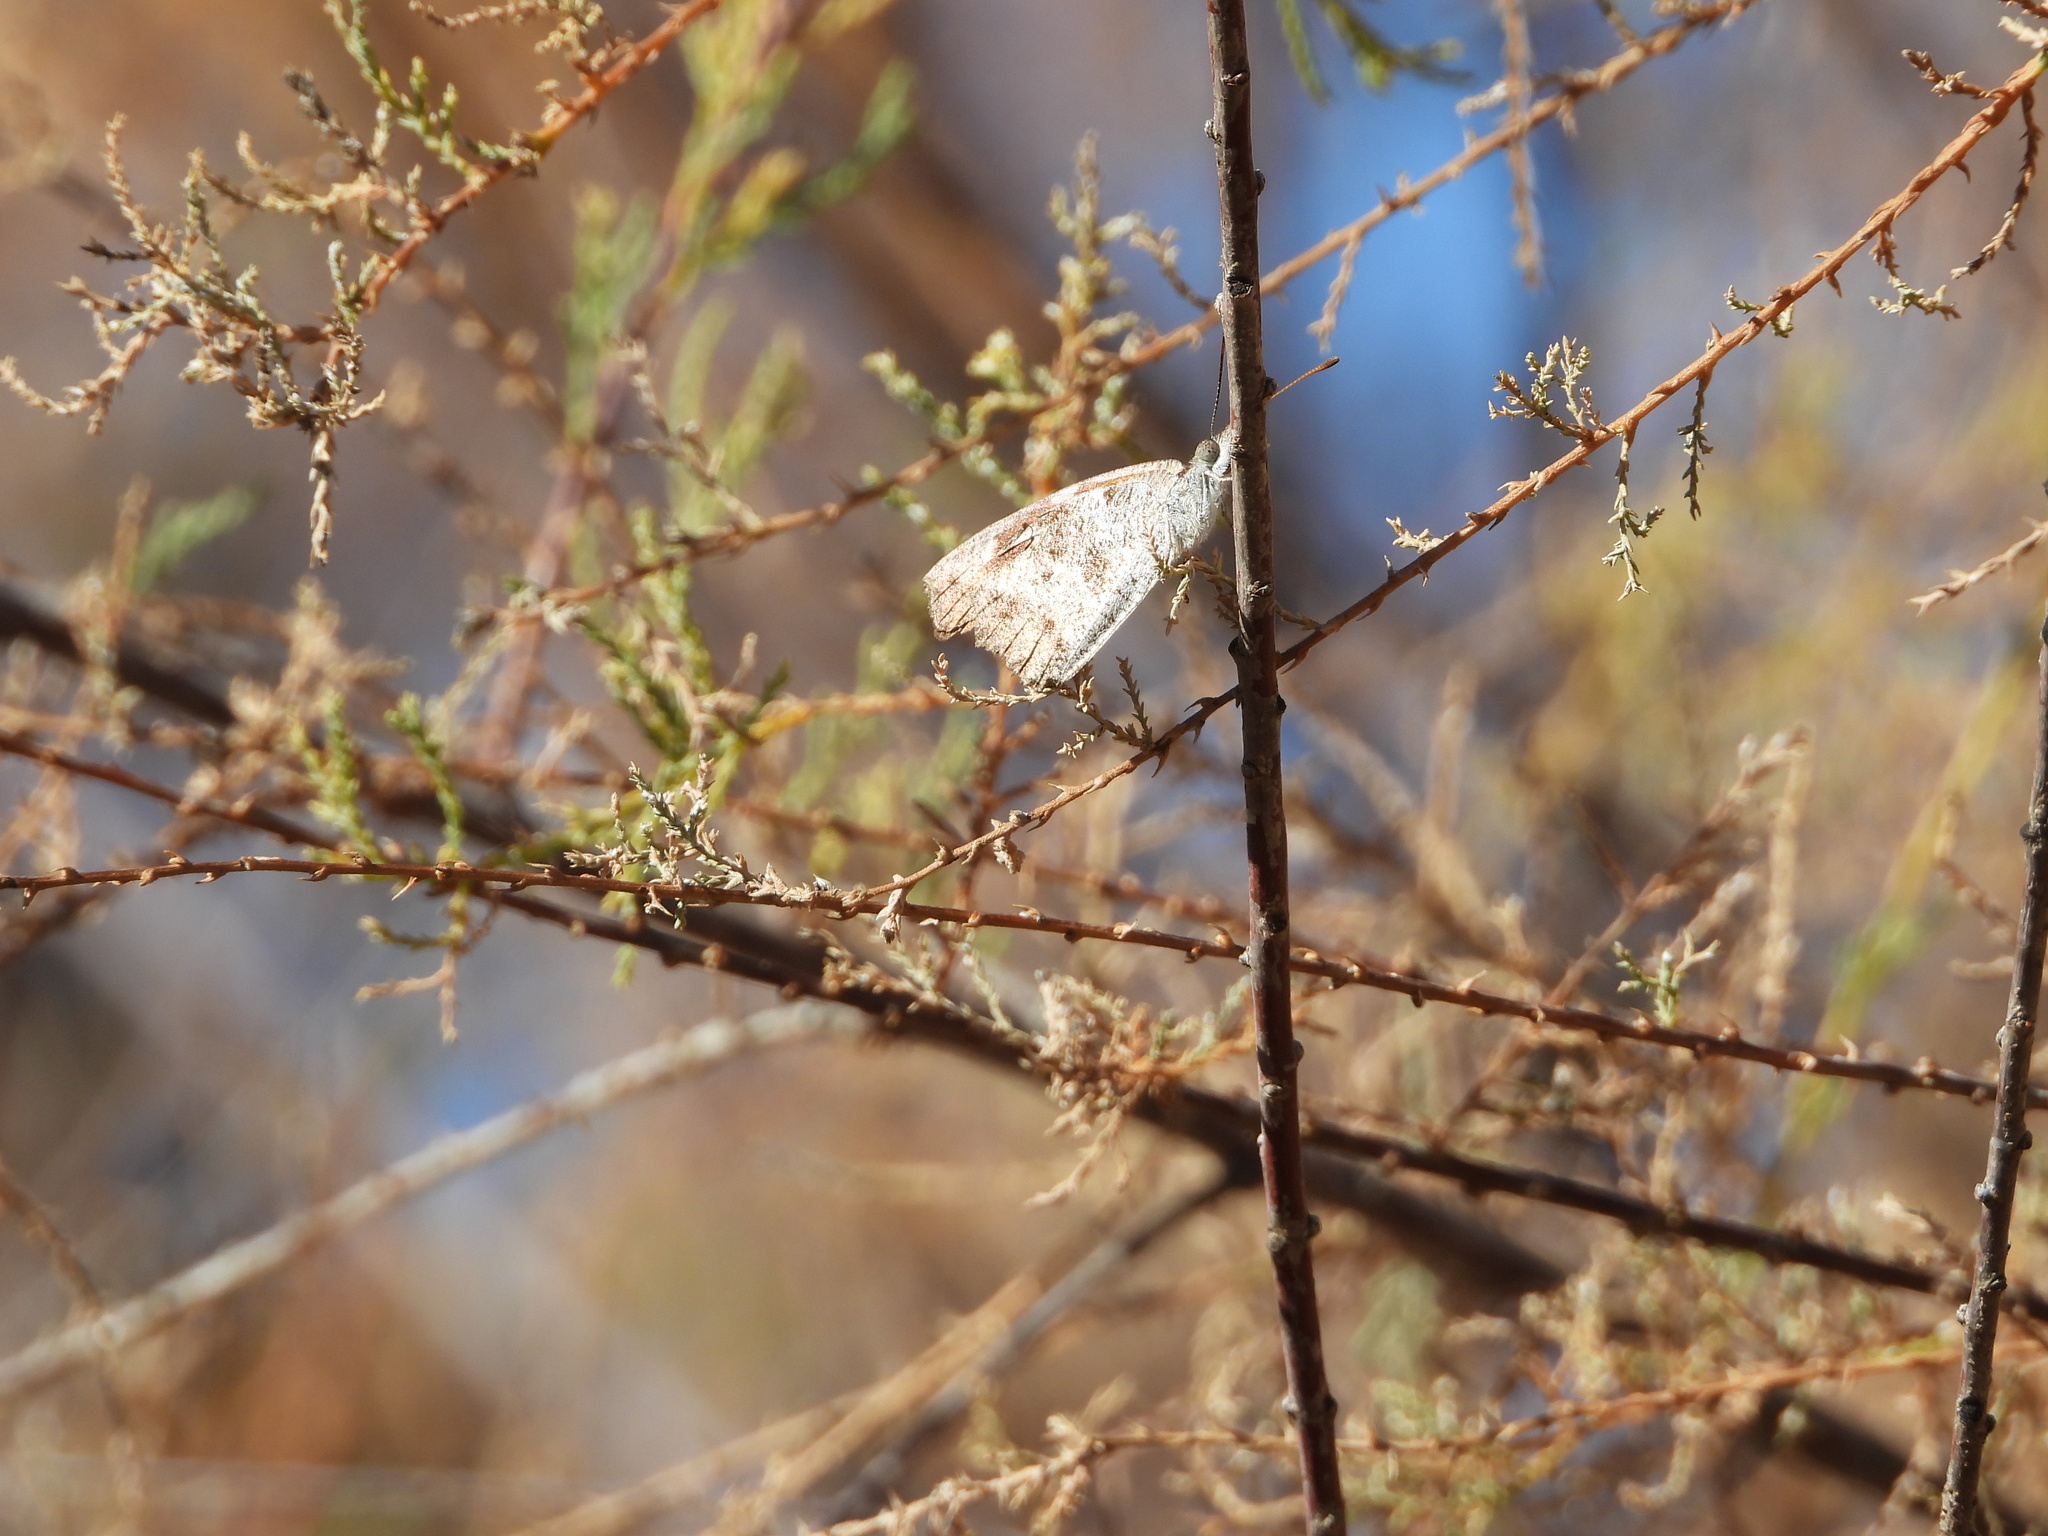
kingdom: Animalia
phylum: Arthropoda
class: Insecta
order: Lepidoptera
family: Nymphalidae
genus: Libytheana
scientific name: Libytheana carinenta
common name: American snout
